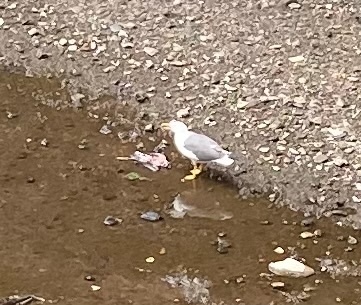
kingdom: Animalia
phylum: Chordata
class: Aves
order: Charadriiformes
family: Laridae
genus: Larus
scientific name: Larus fuscus
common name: Lesser black-backed gull
